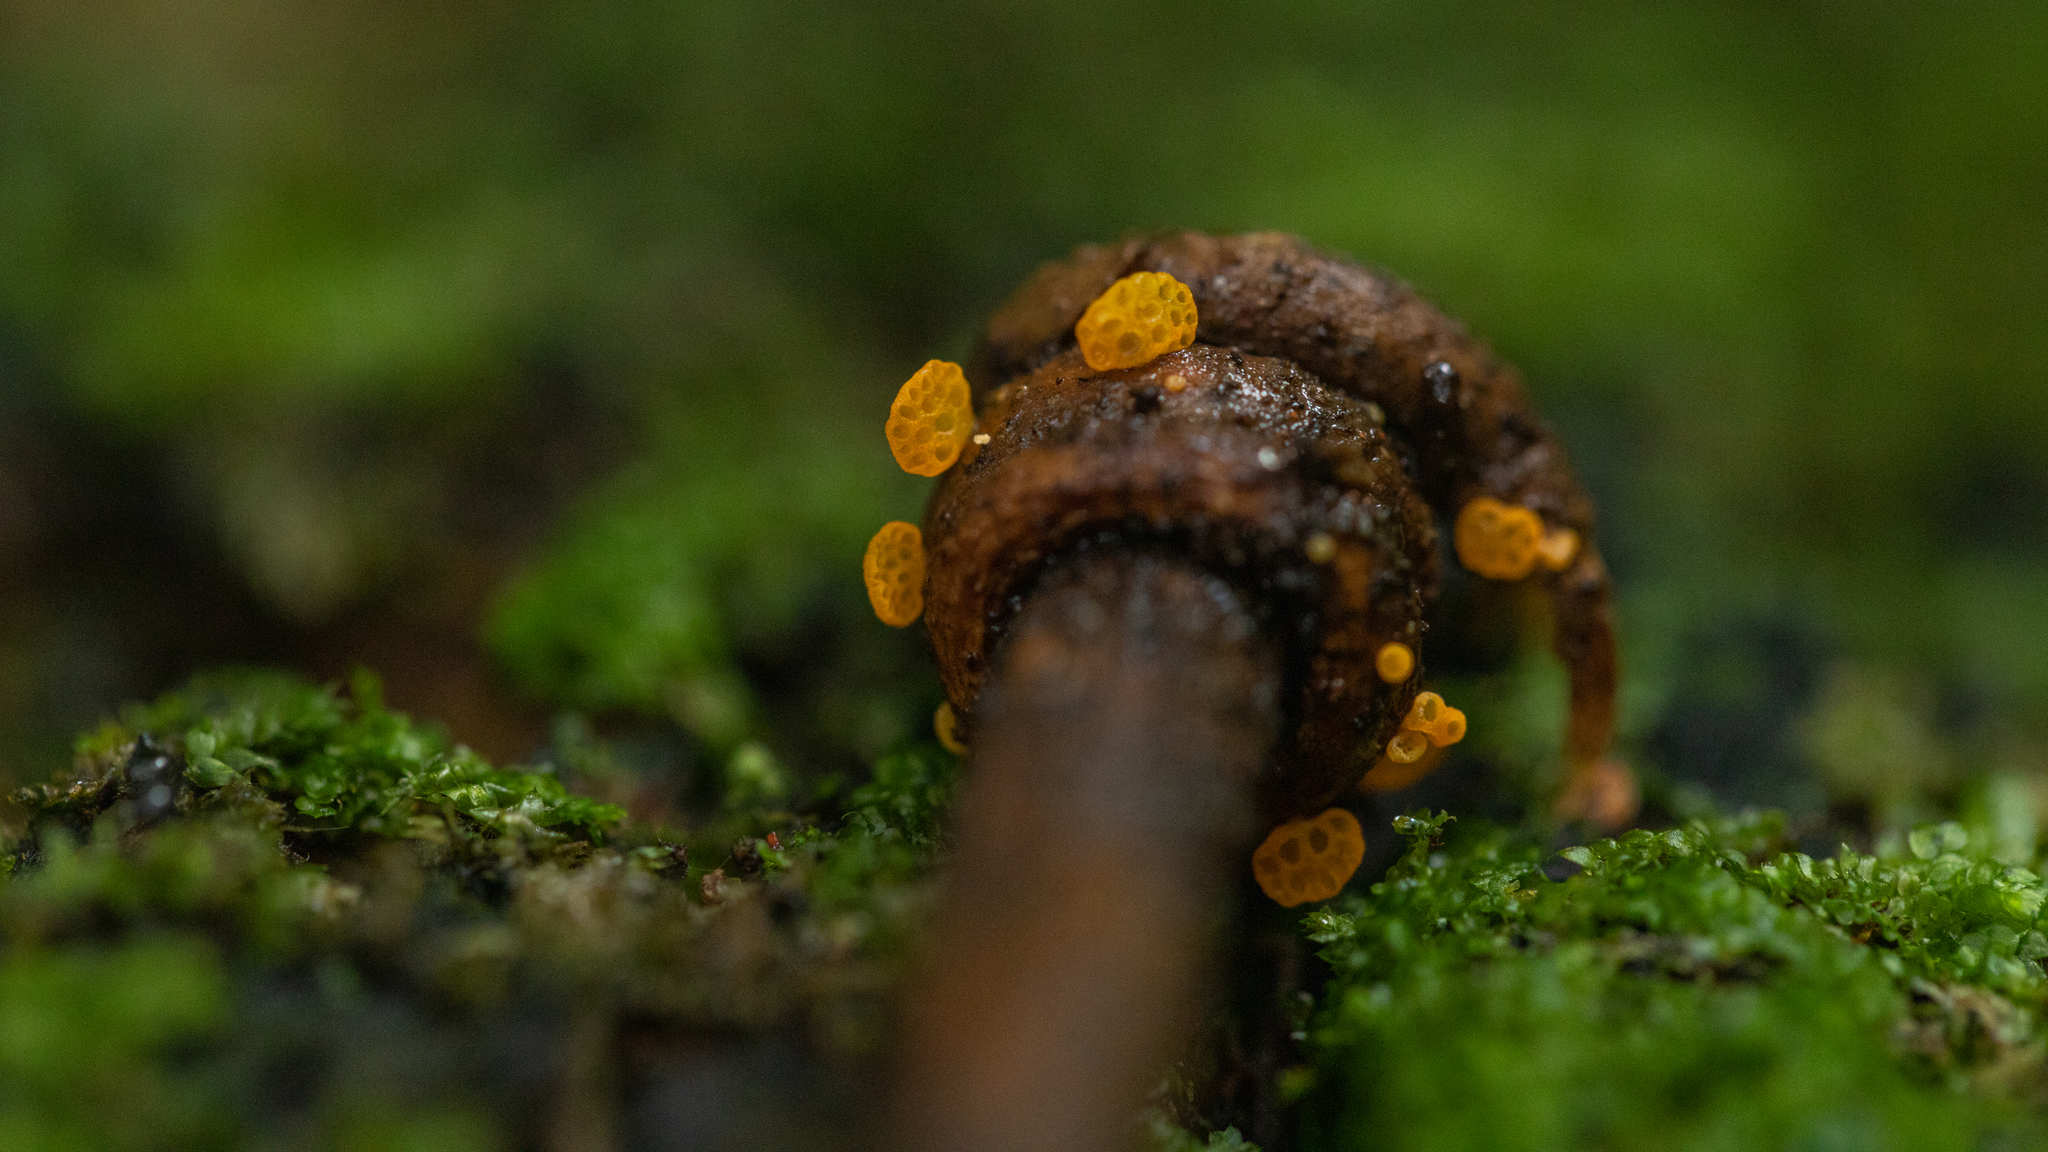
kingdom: Fungi
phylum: Basidiomycota
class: Agaricomycetes
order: Agaricales
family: Mycenaceae
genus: Favolaschia
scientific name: Favolaschia cinnabarina
